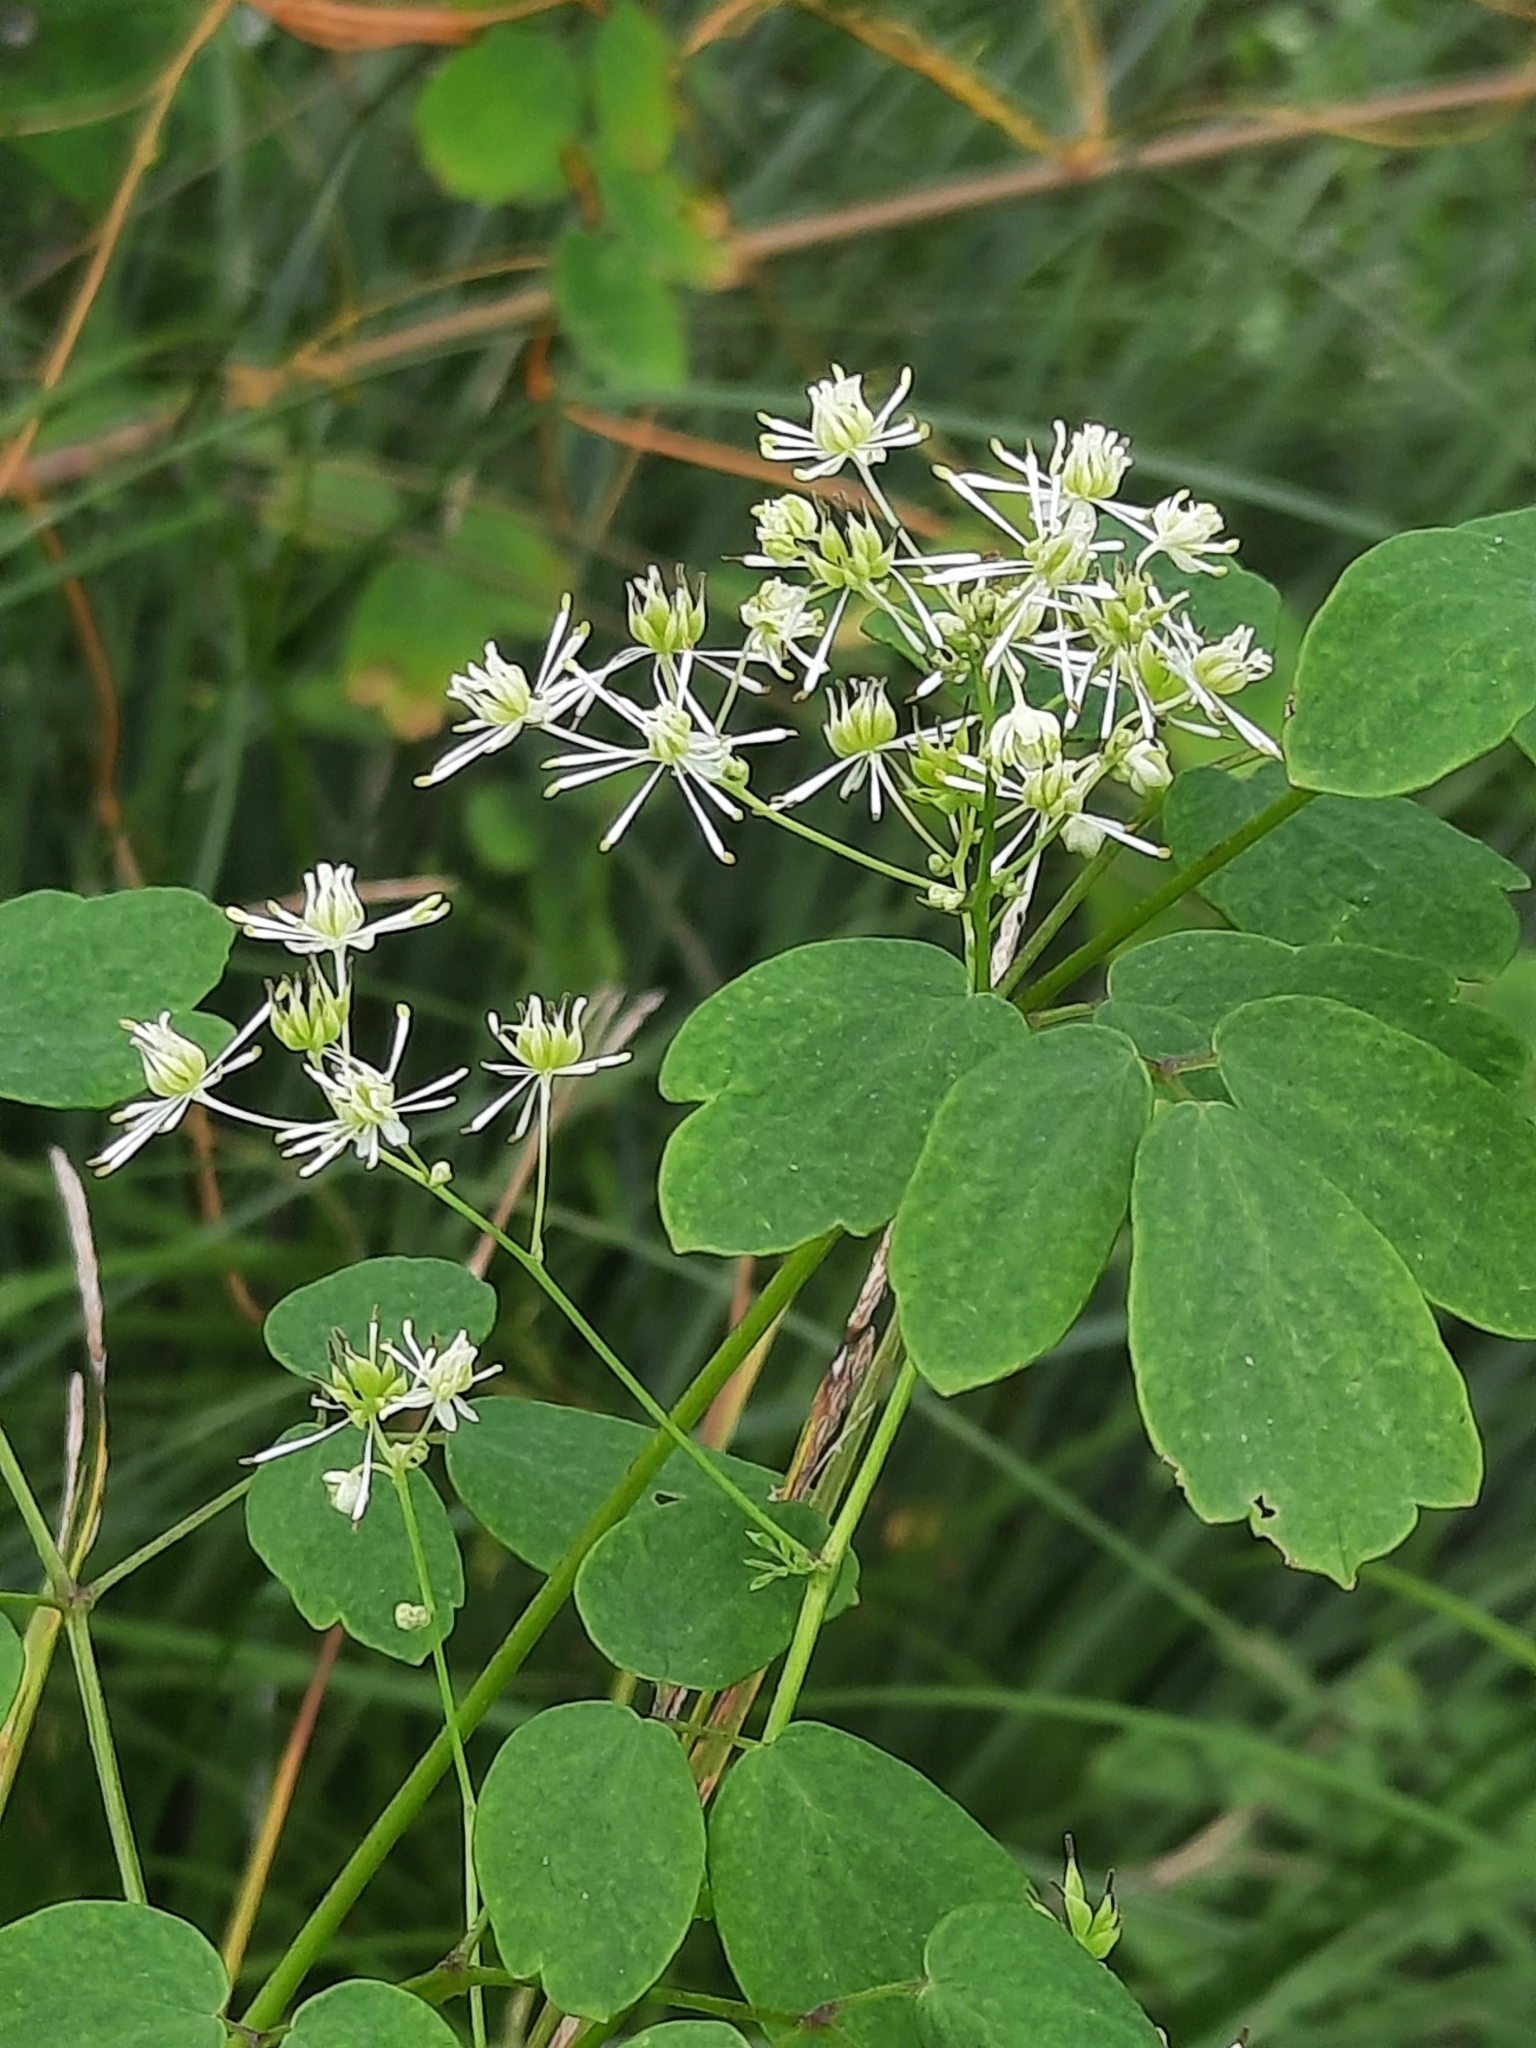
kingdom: Plantae
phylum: Tracheophyta
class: Magnoliopsida
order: Ranunculales
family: Ranunculaceae
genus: Thalictrum
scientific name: Thalictrum pubescens
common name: King-of-the-meadow
